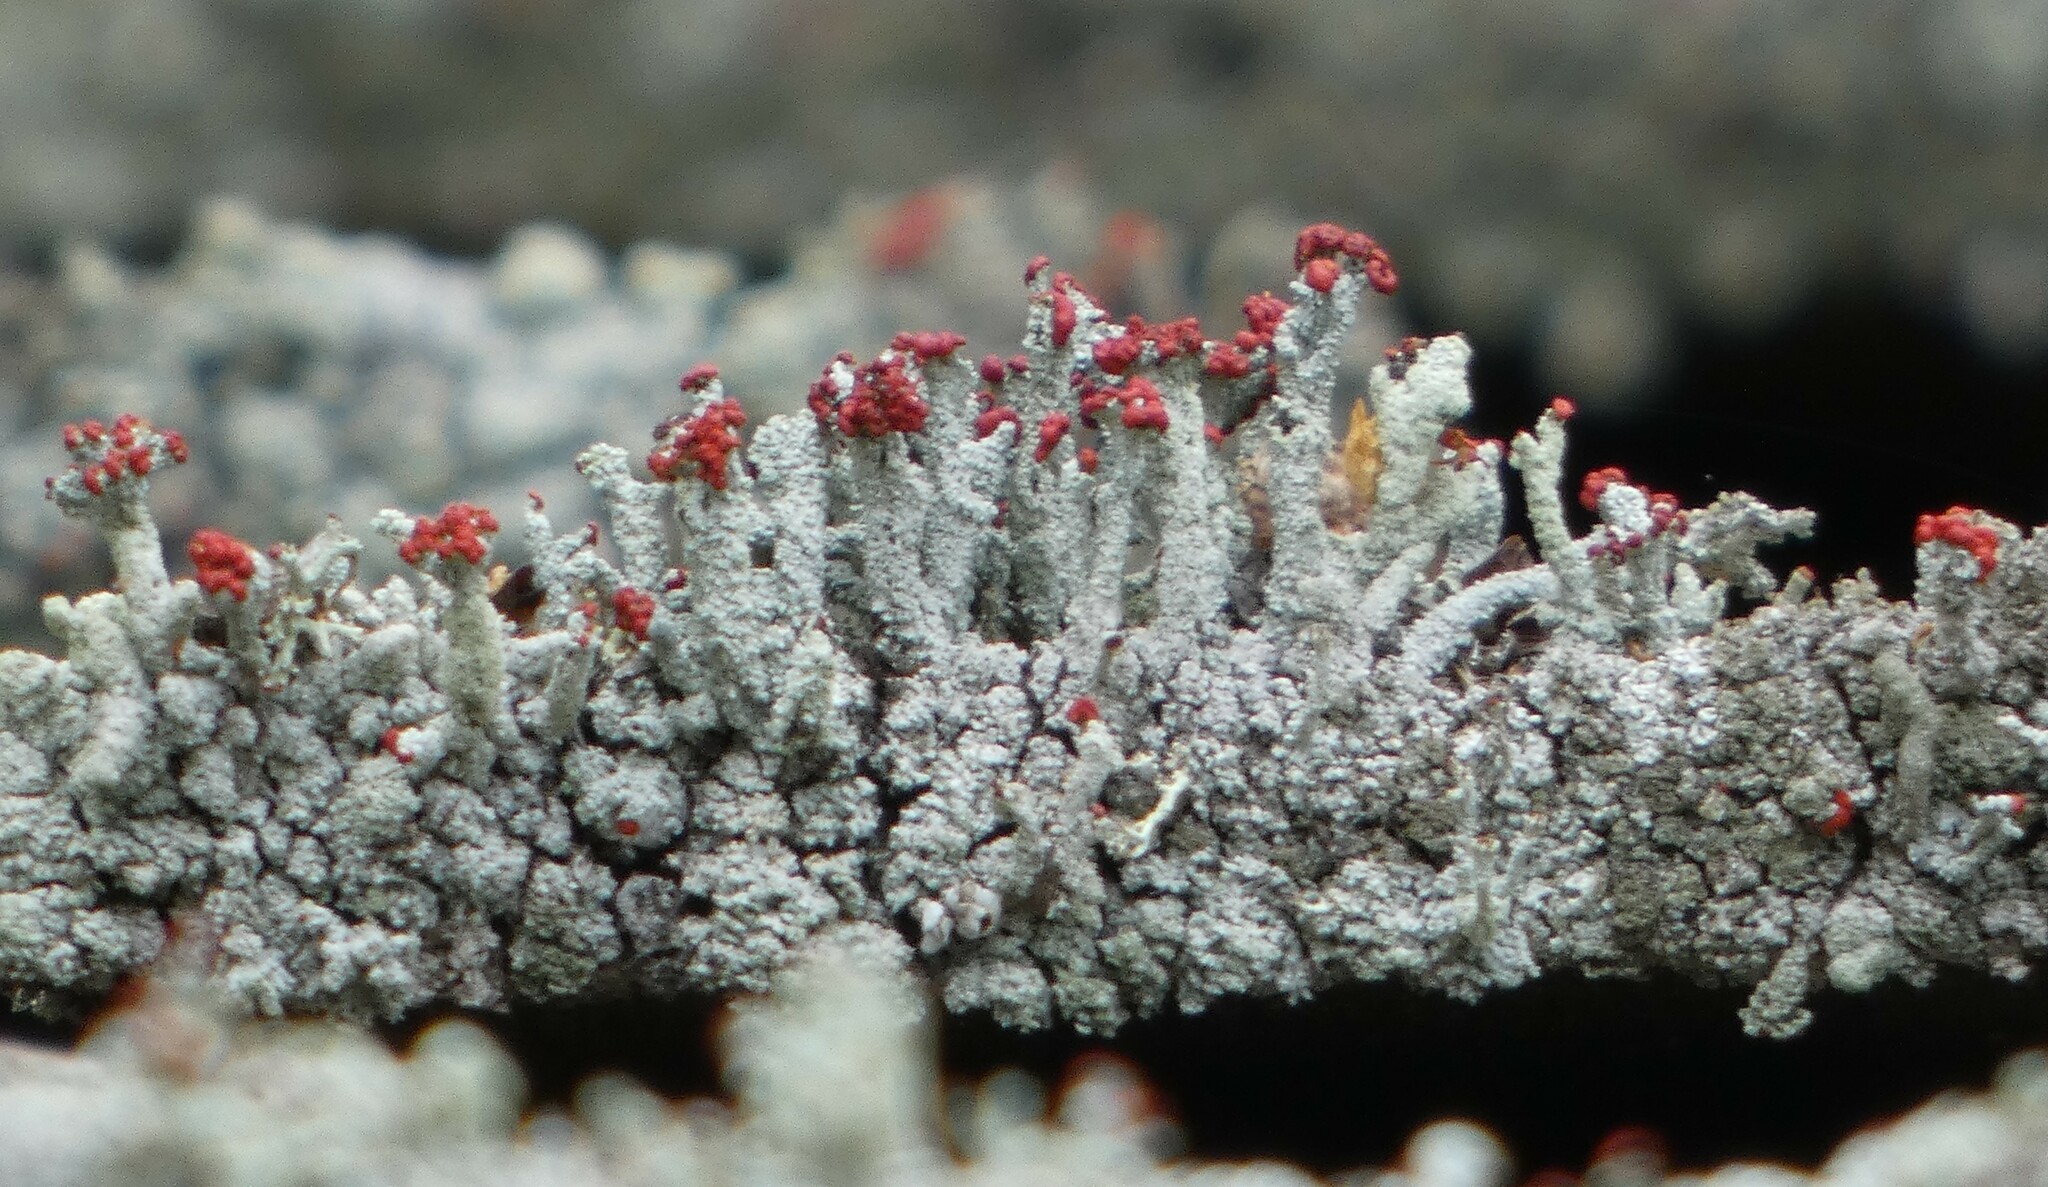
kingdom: Fungi
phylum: Ascomycota
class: Lecanoromycetes
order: Lecanorales
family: Cladoniaceae
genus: Cladonia
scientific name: Cladonia floerkeana
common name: Gritty british soldiers lichen
